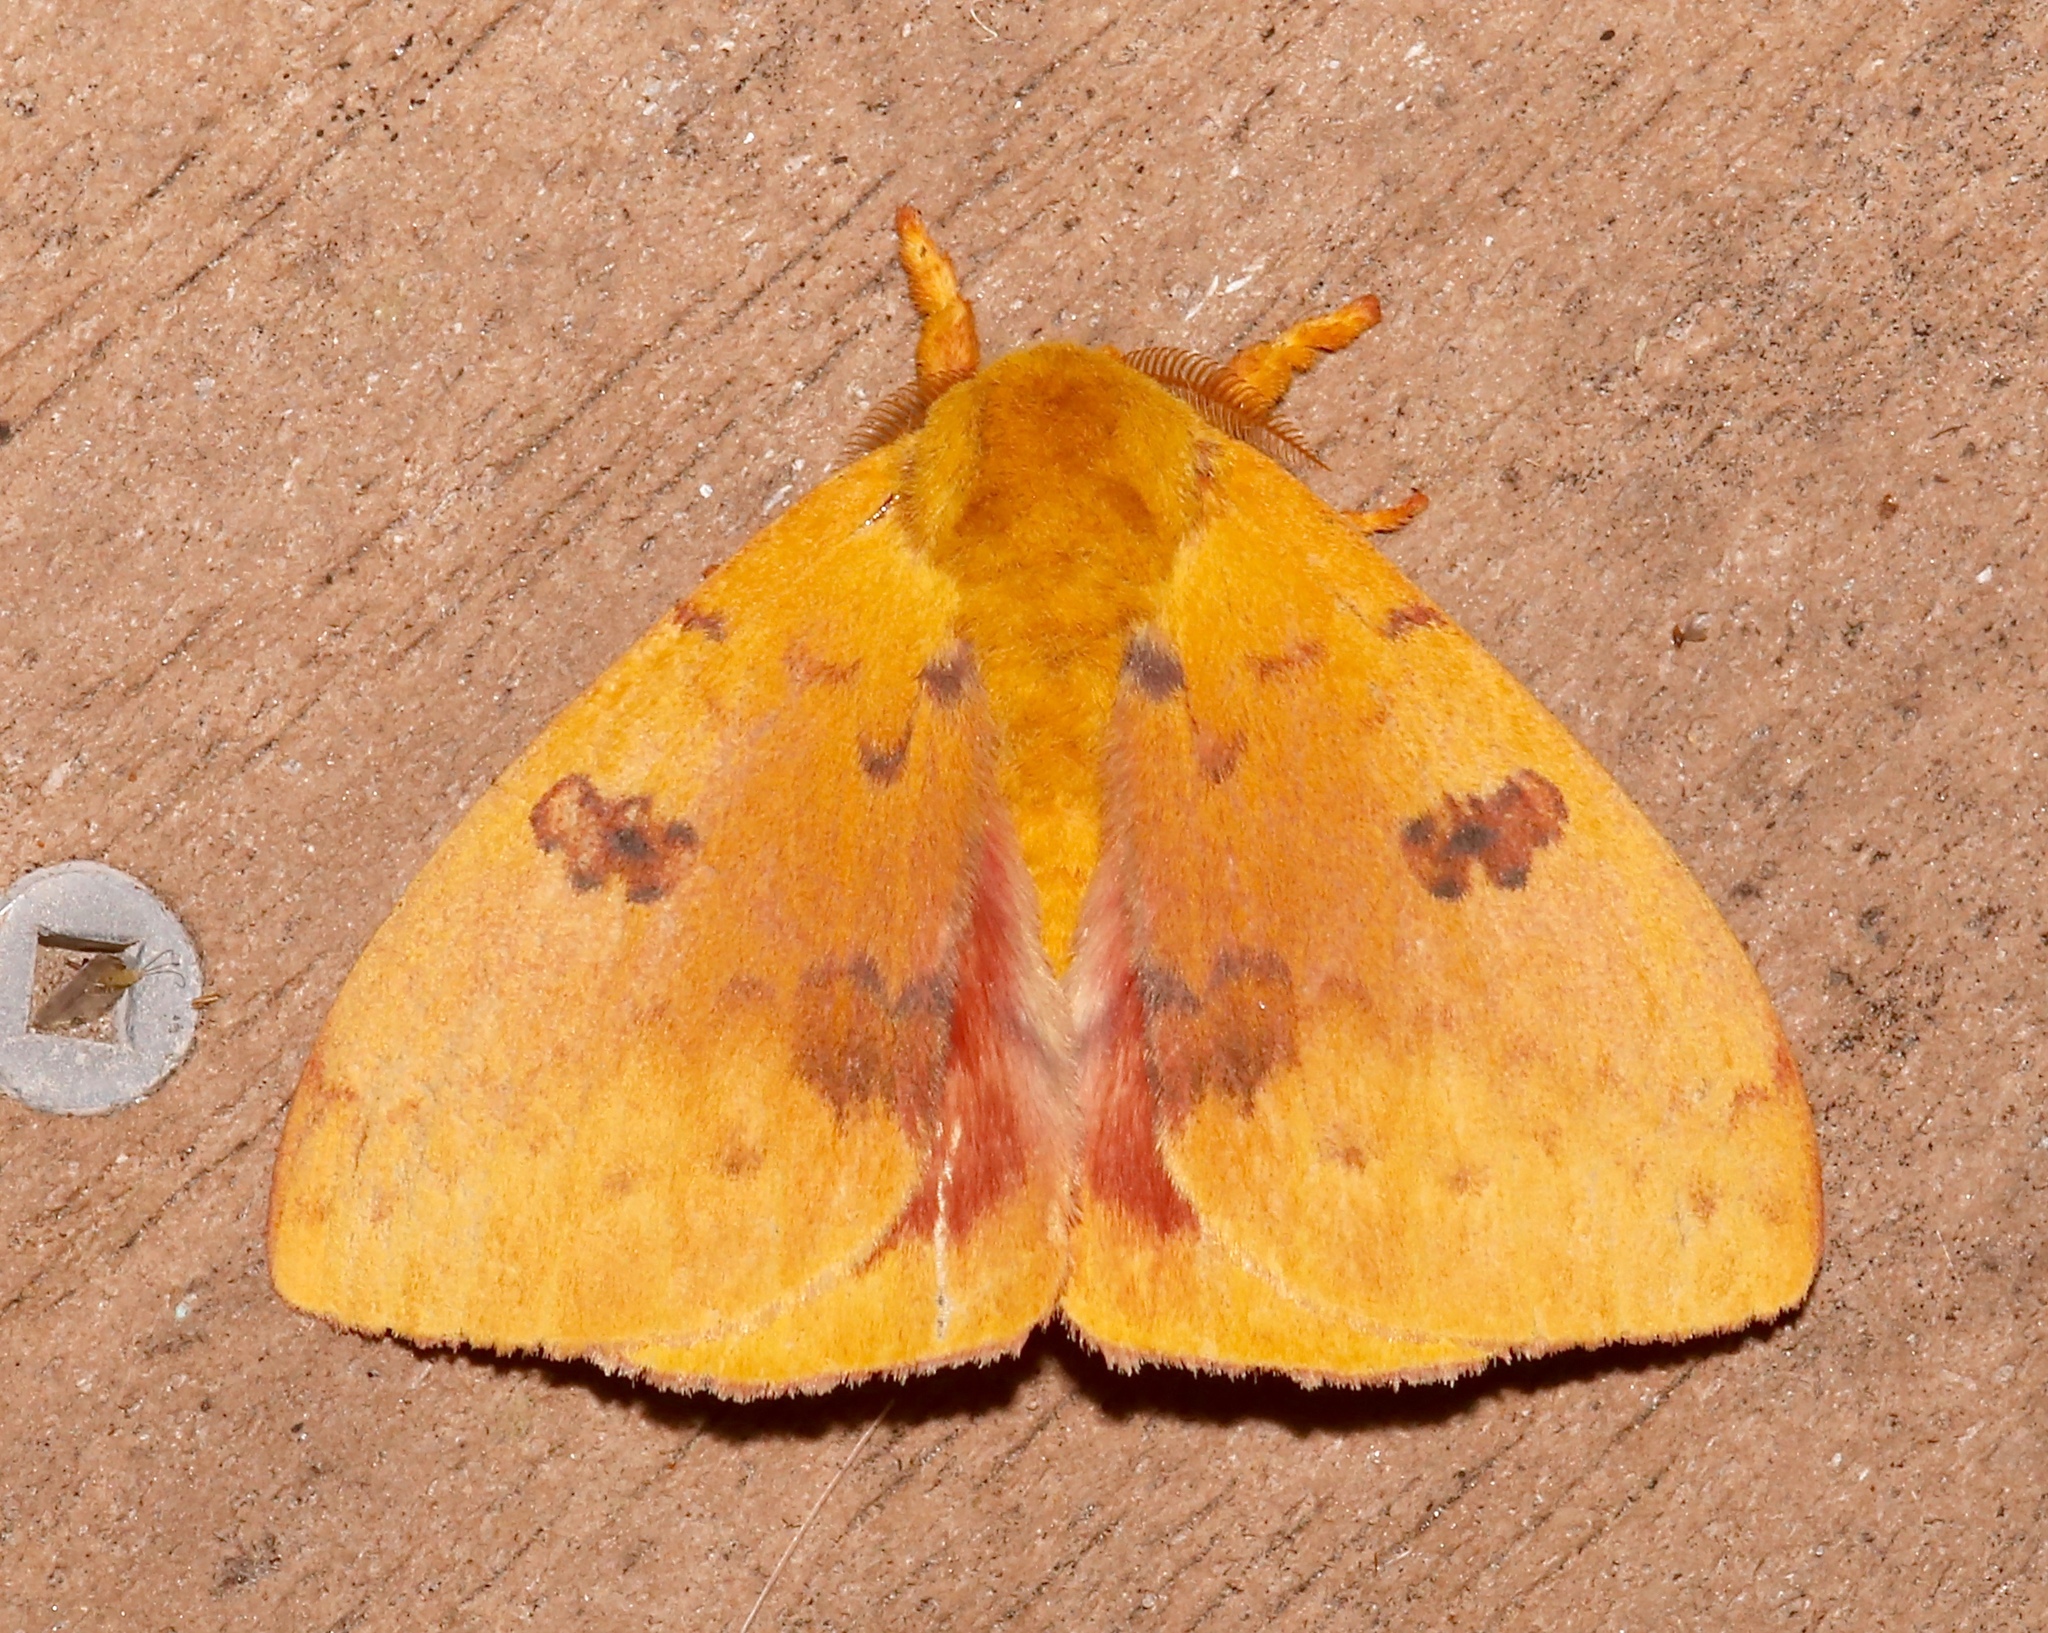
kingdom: Animalia
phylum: Arthropoda
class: Insecta
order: Lepidoptera
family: Saturniidae
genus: Automeris
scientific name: Automeris io
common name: Io moth
